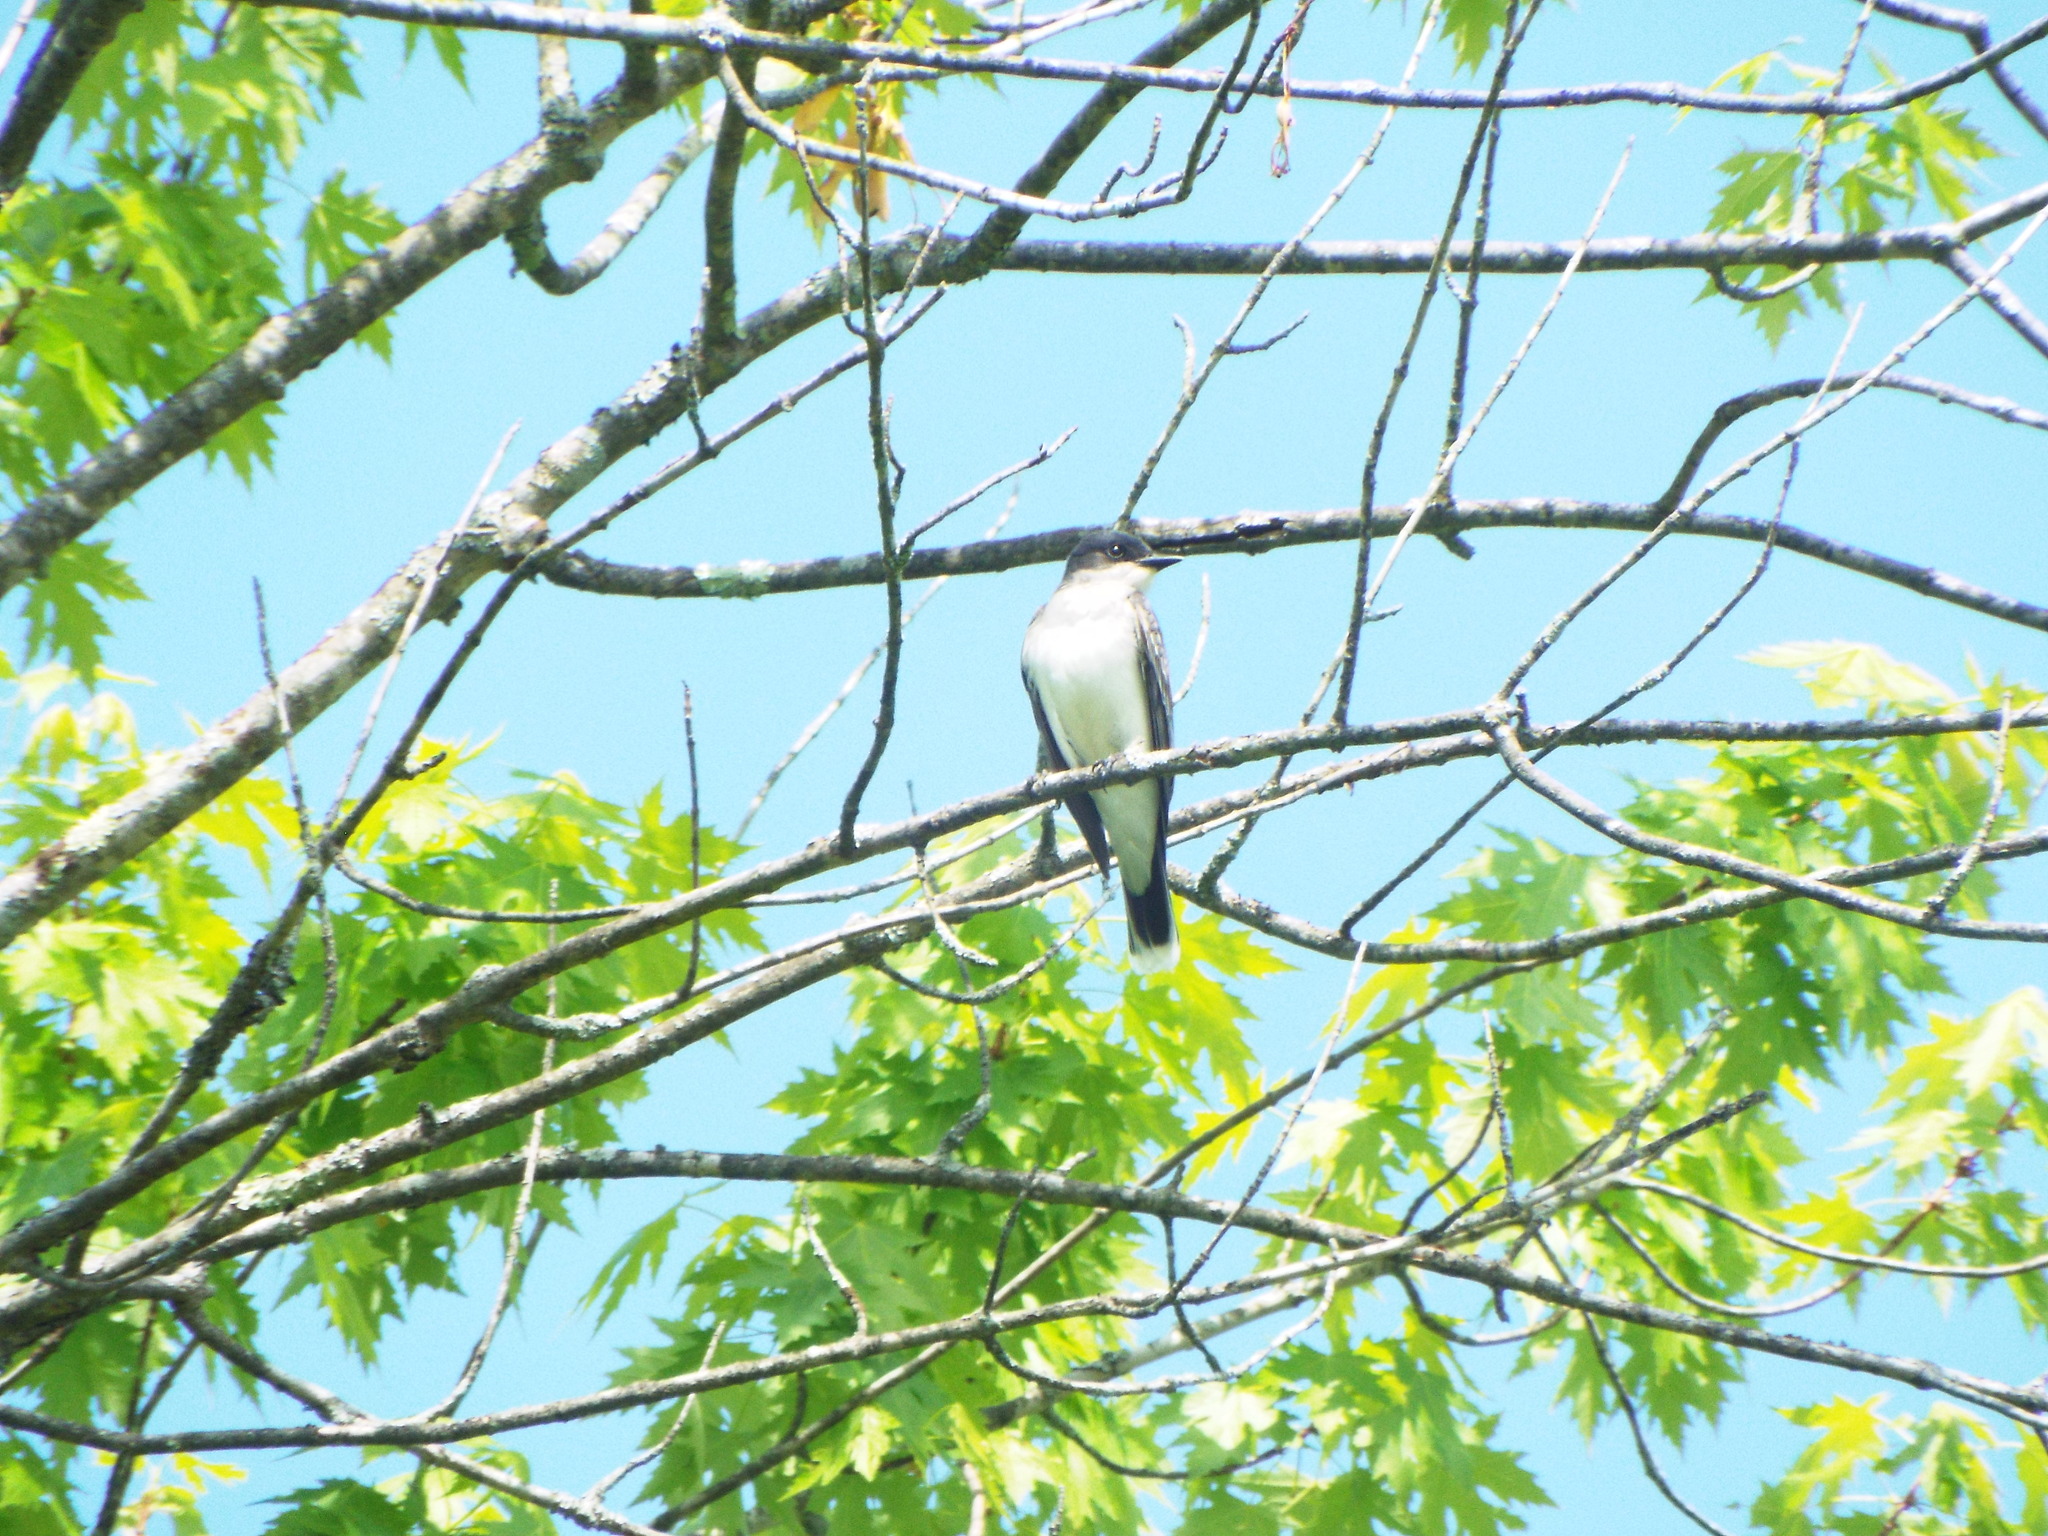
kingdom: Animalia
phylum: Chordata
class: Aves
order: Passeriformes
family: Tyrannidae
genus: Tyrannus
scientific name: Tyrannus tyrannus
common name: Eastern kingbird
